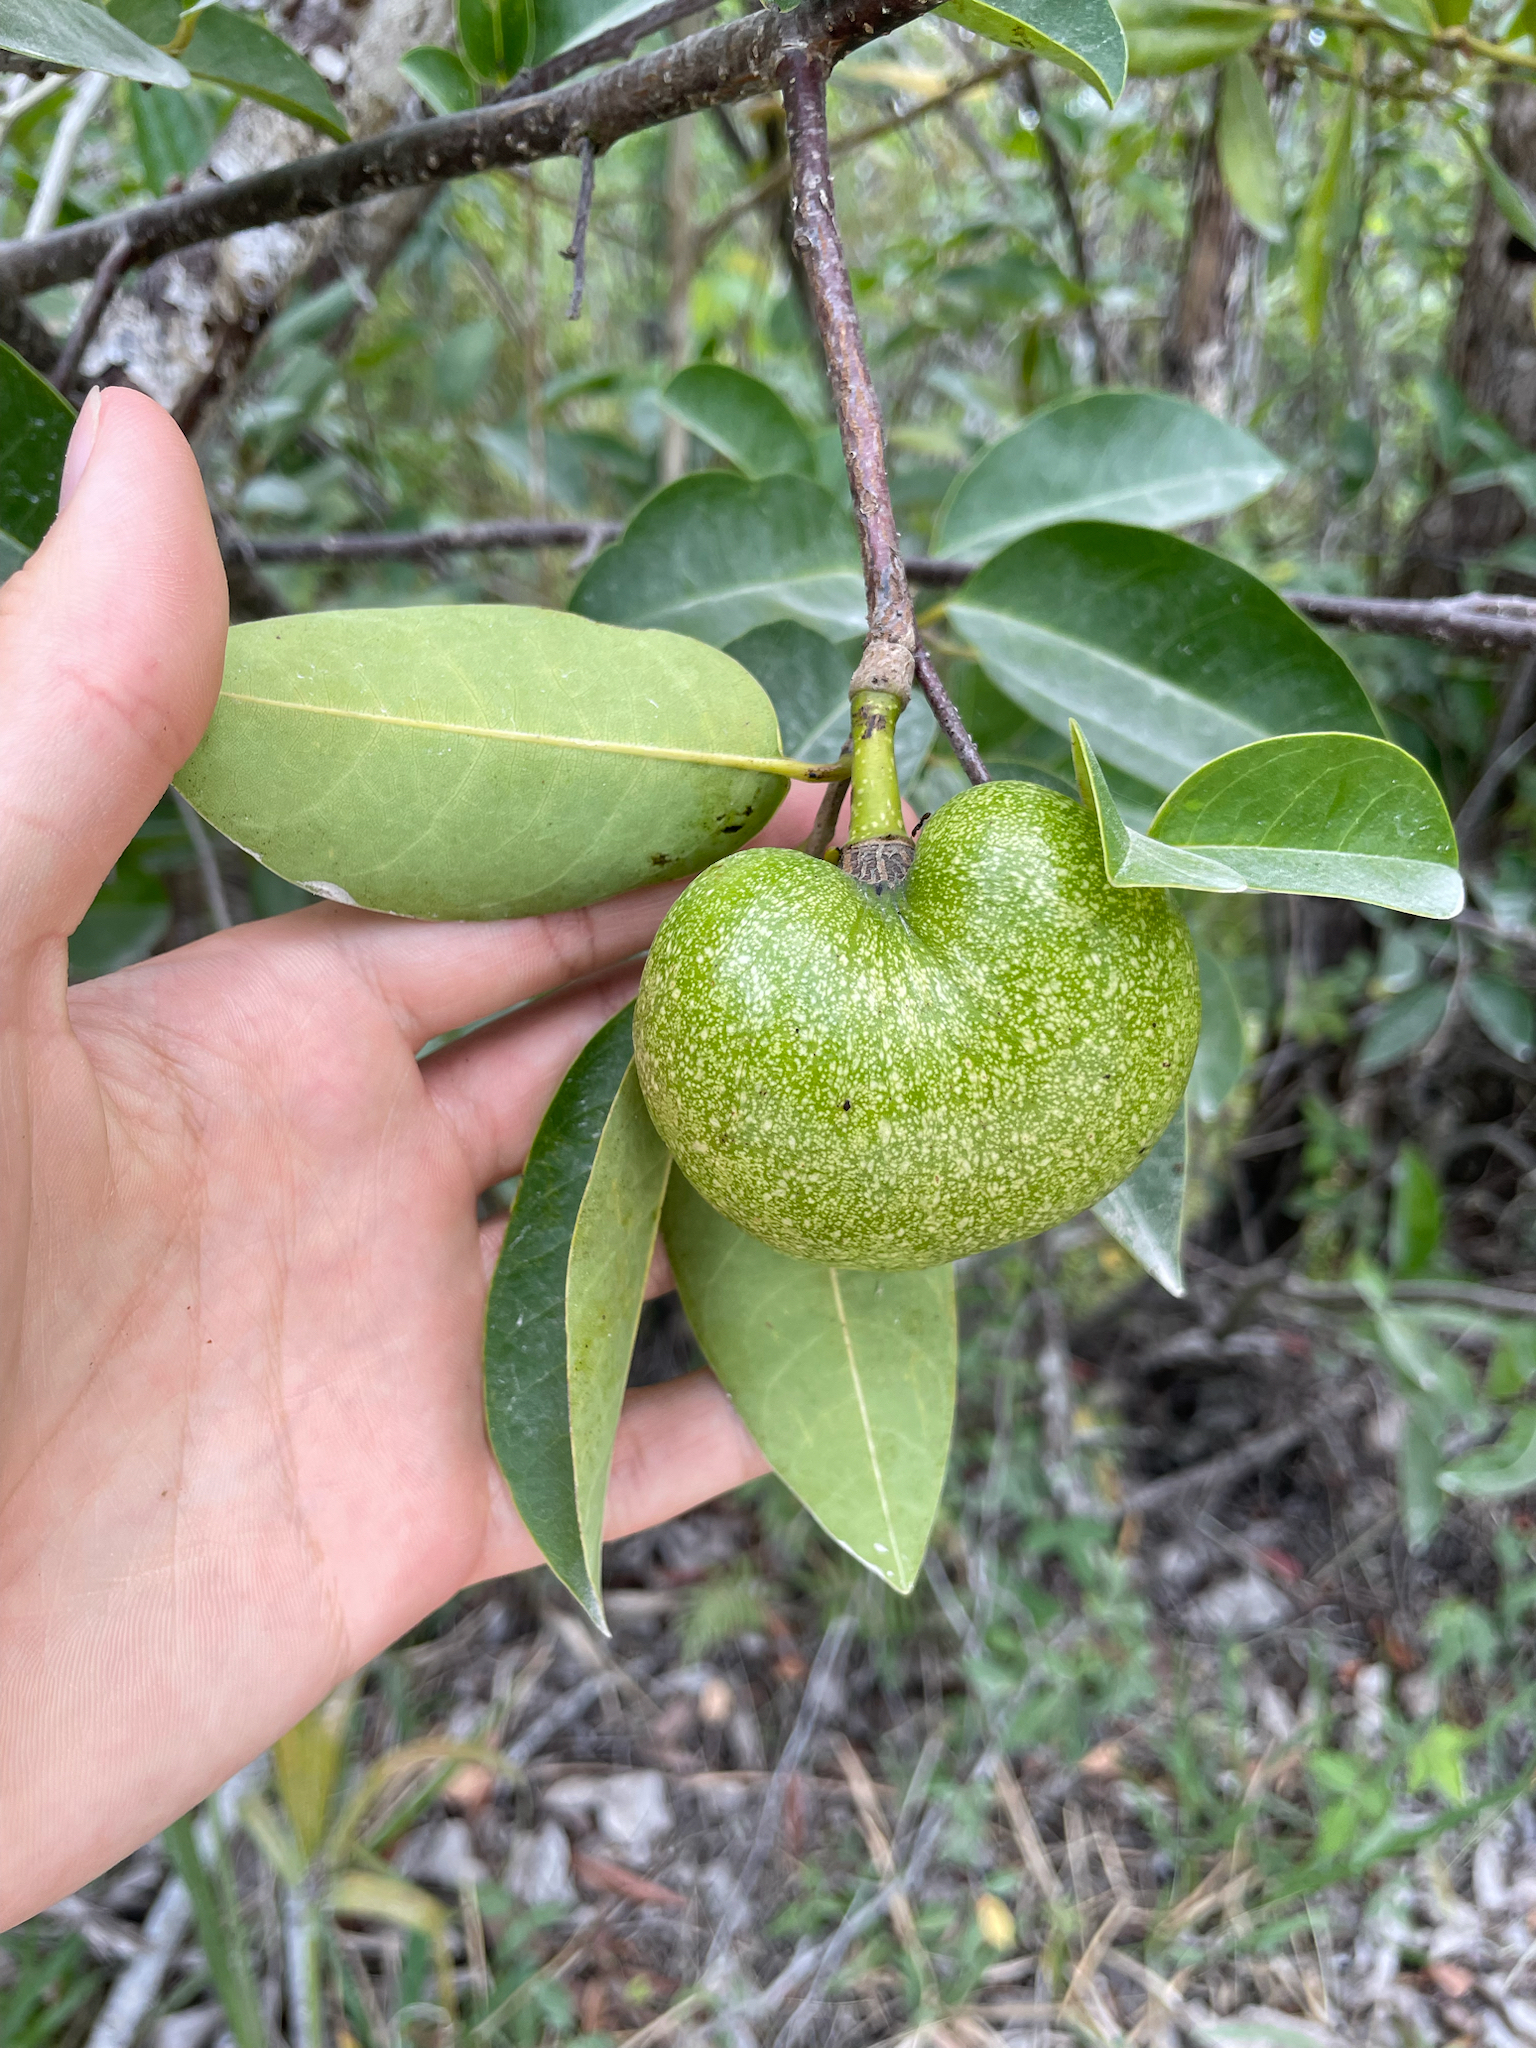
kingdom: Plantae
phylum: Tracheophyta
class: Magnoliopsida
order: Magnoliales
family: Annonaceae
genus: Annona
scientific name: Annona glabra
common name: Monkey apple
